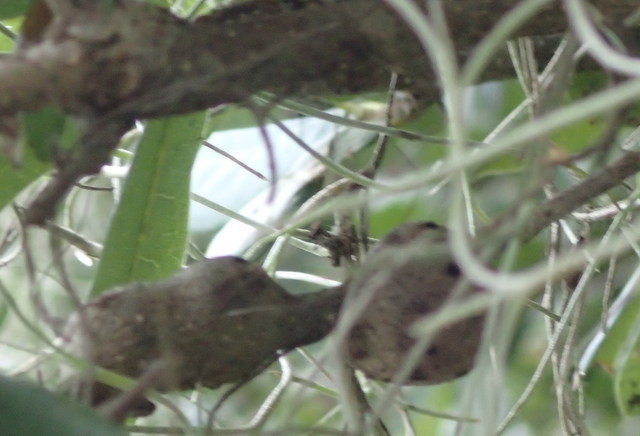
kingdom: Animalia
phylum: Arthropoda
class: Insecta
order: Hymenoptera
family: Cynipidae
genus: Callirhytis
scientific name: Callirhytis
